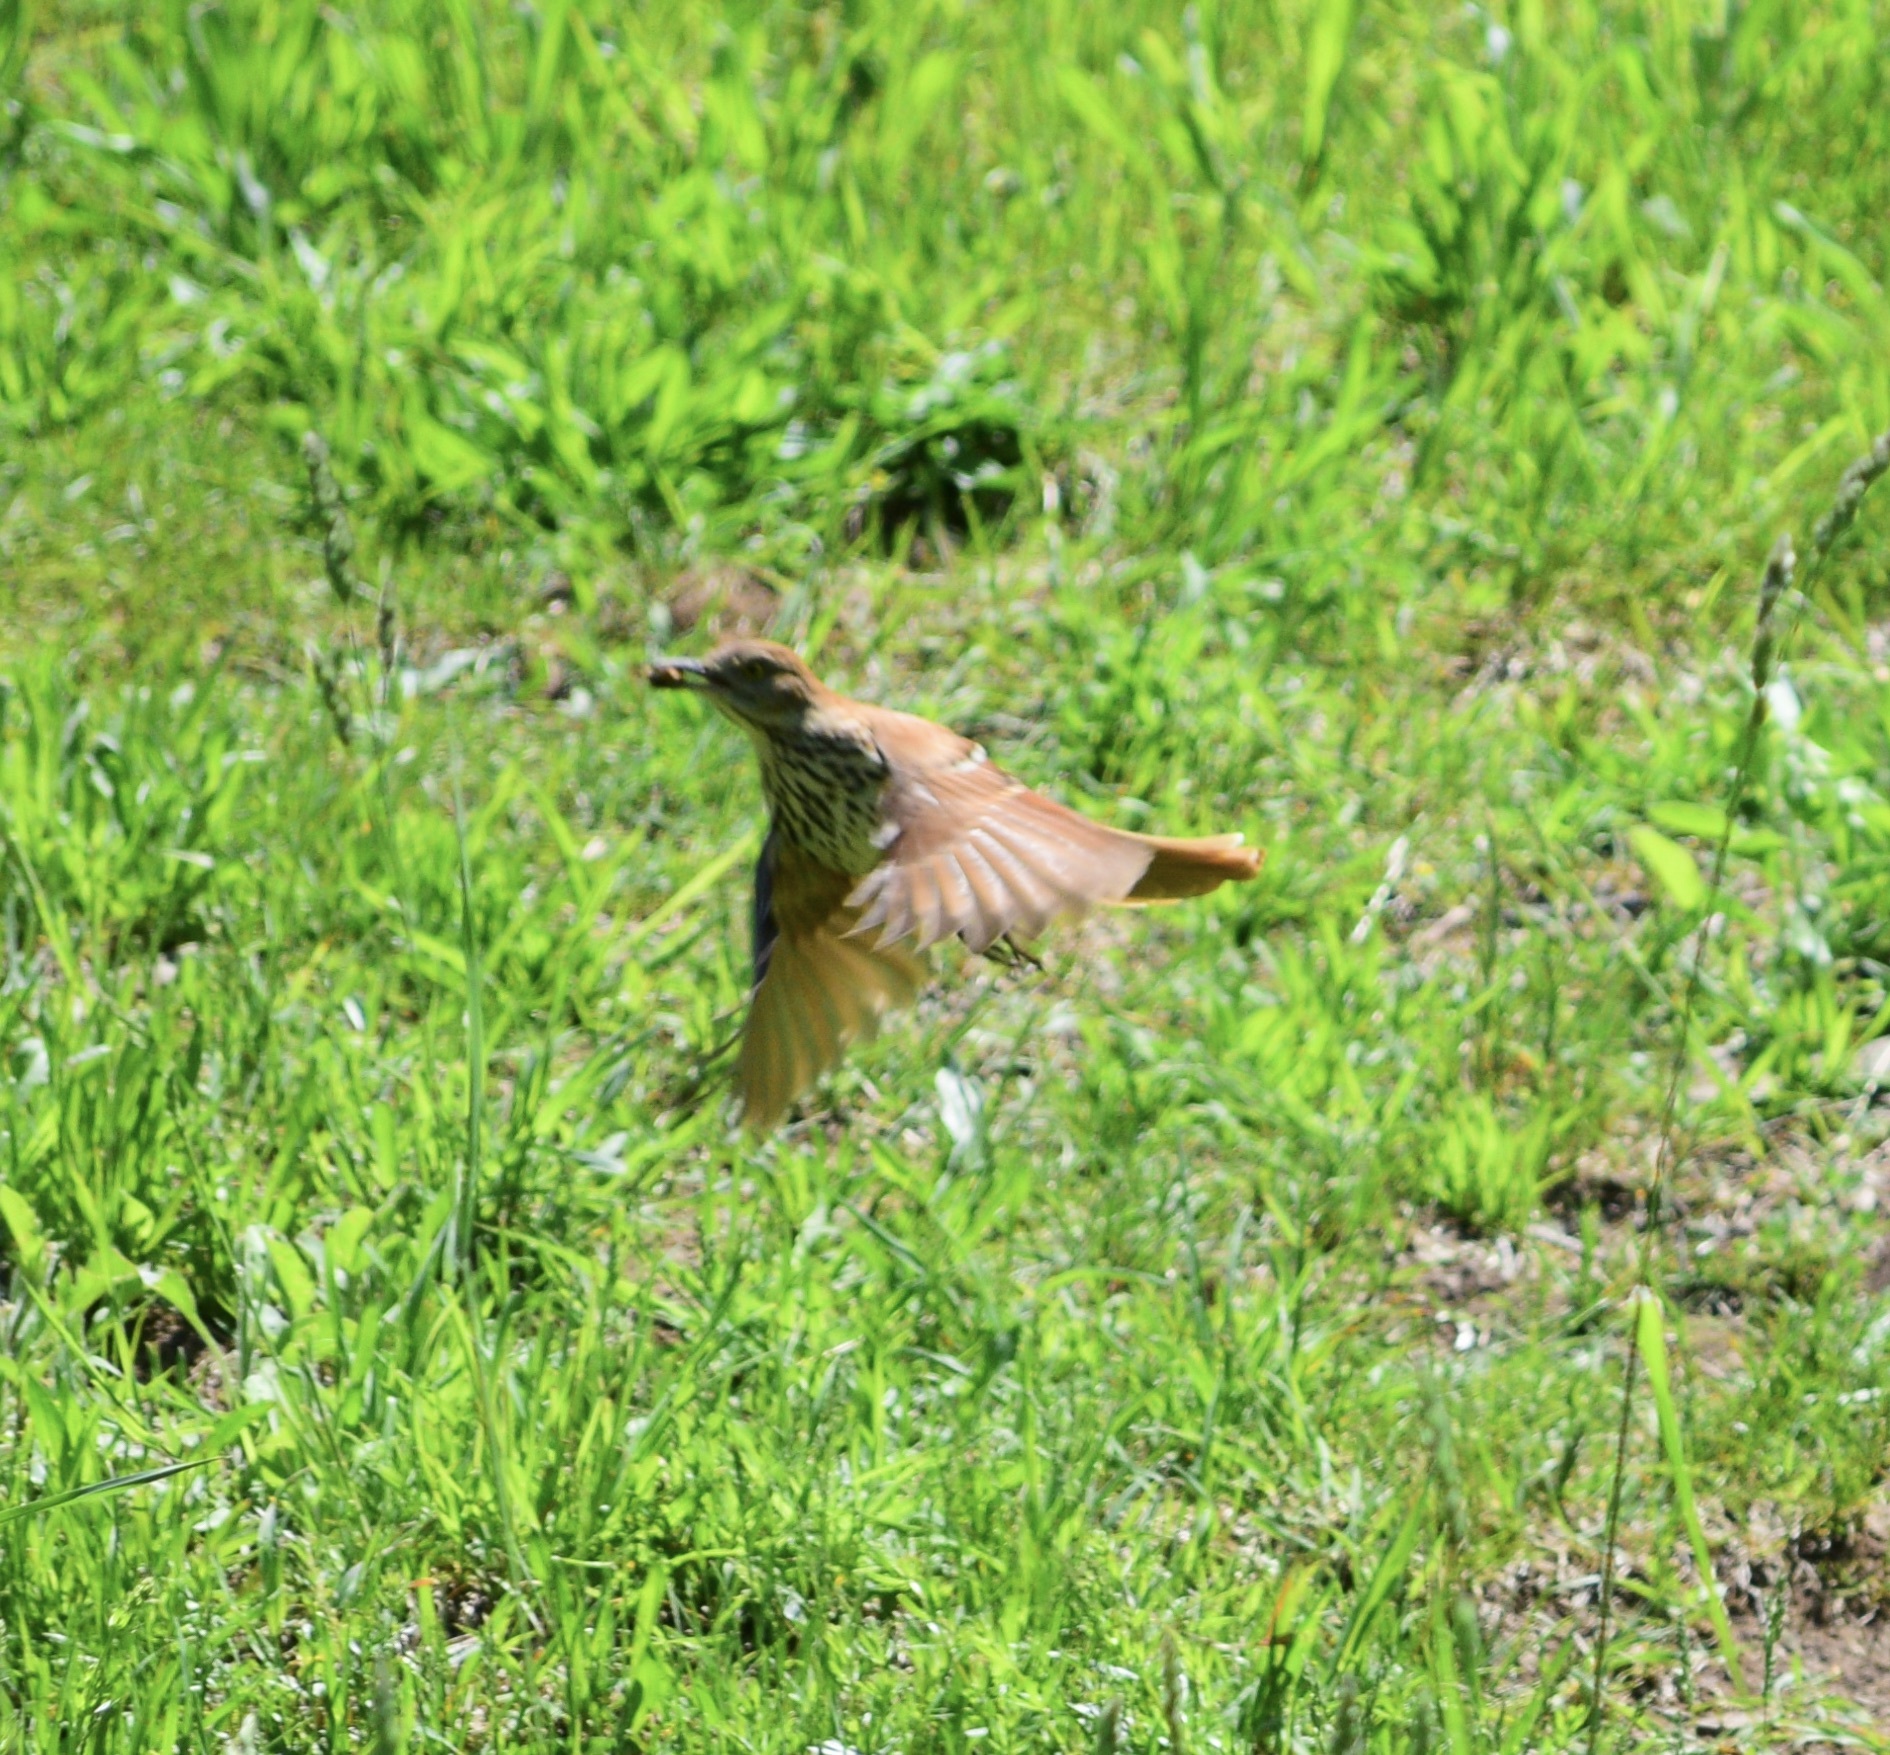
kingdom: Animalia
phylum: Chordata
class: Aves
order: Passeriformes
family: Mimidae
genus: Toxostoma
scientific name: Toxostoma rufum
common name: Brown thrasher
